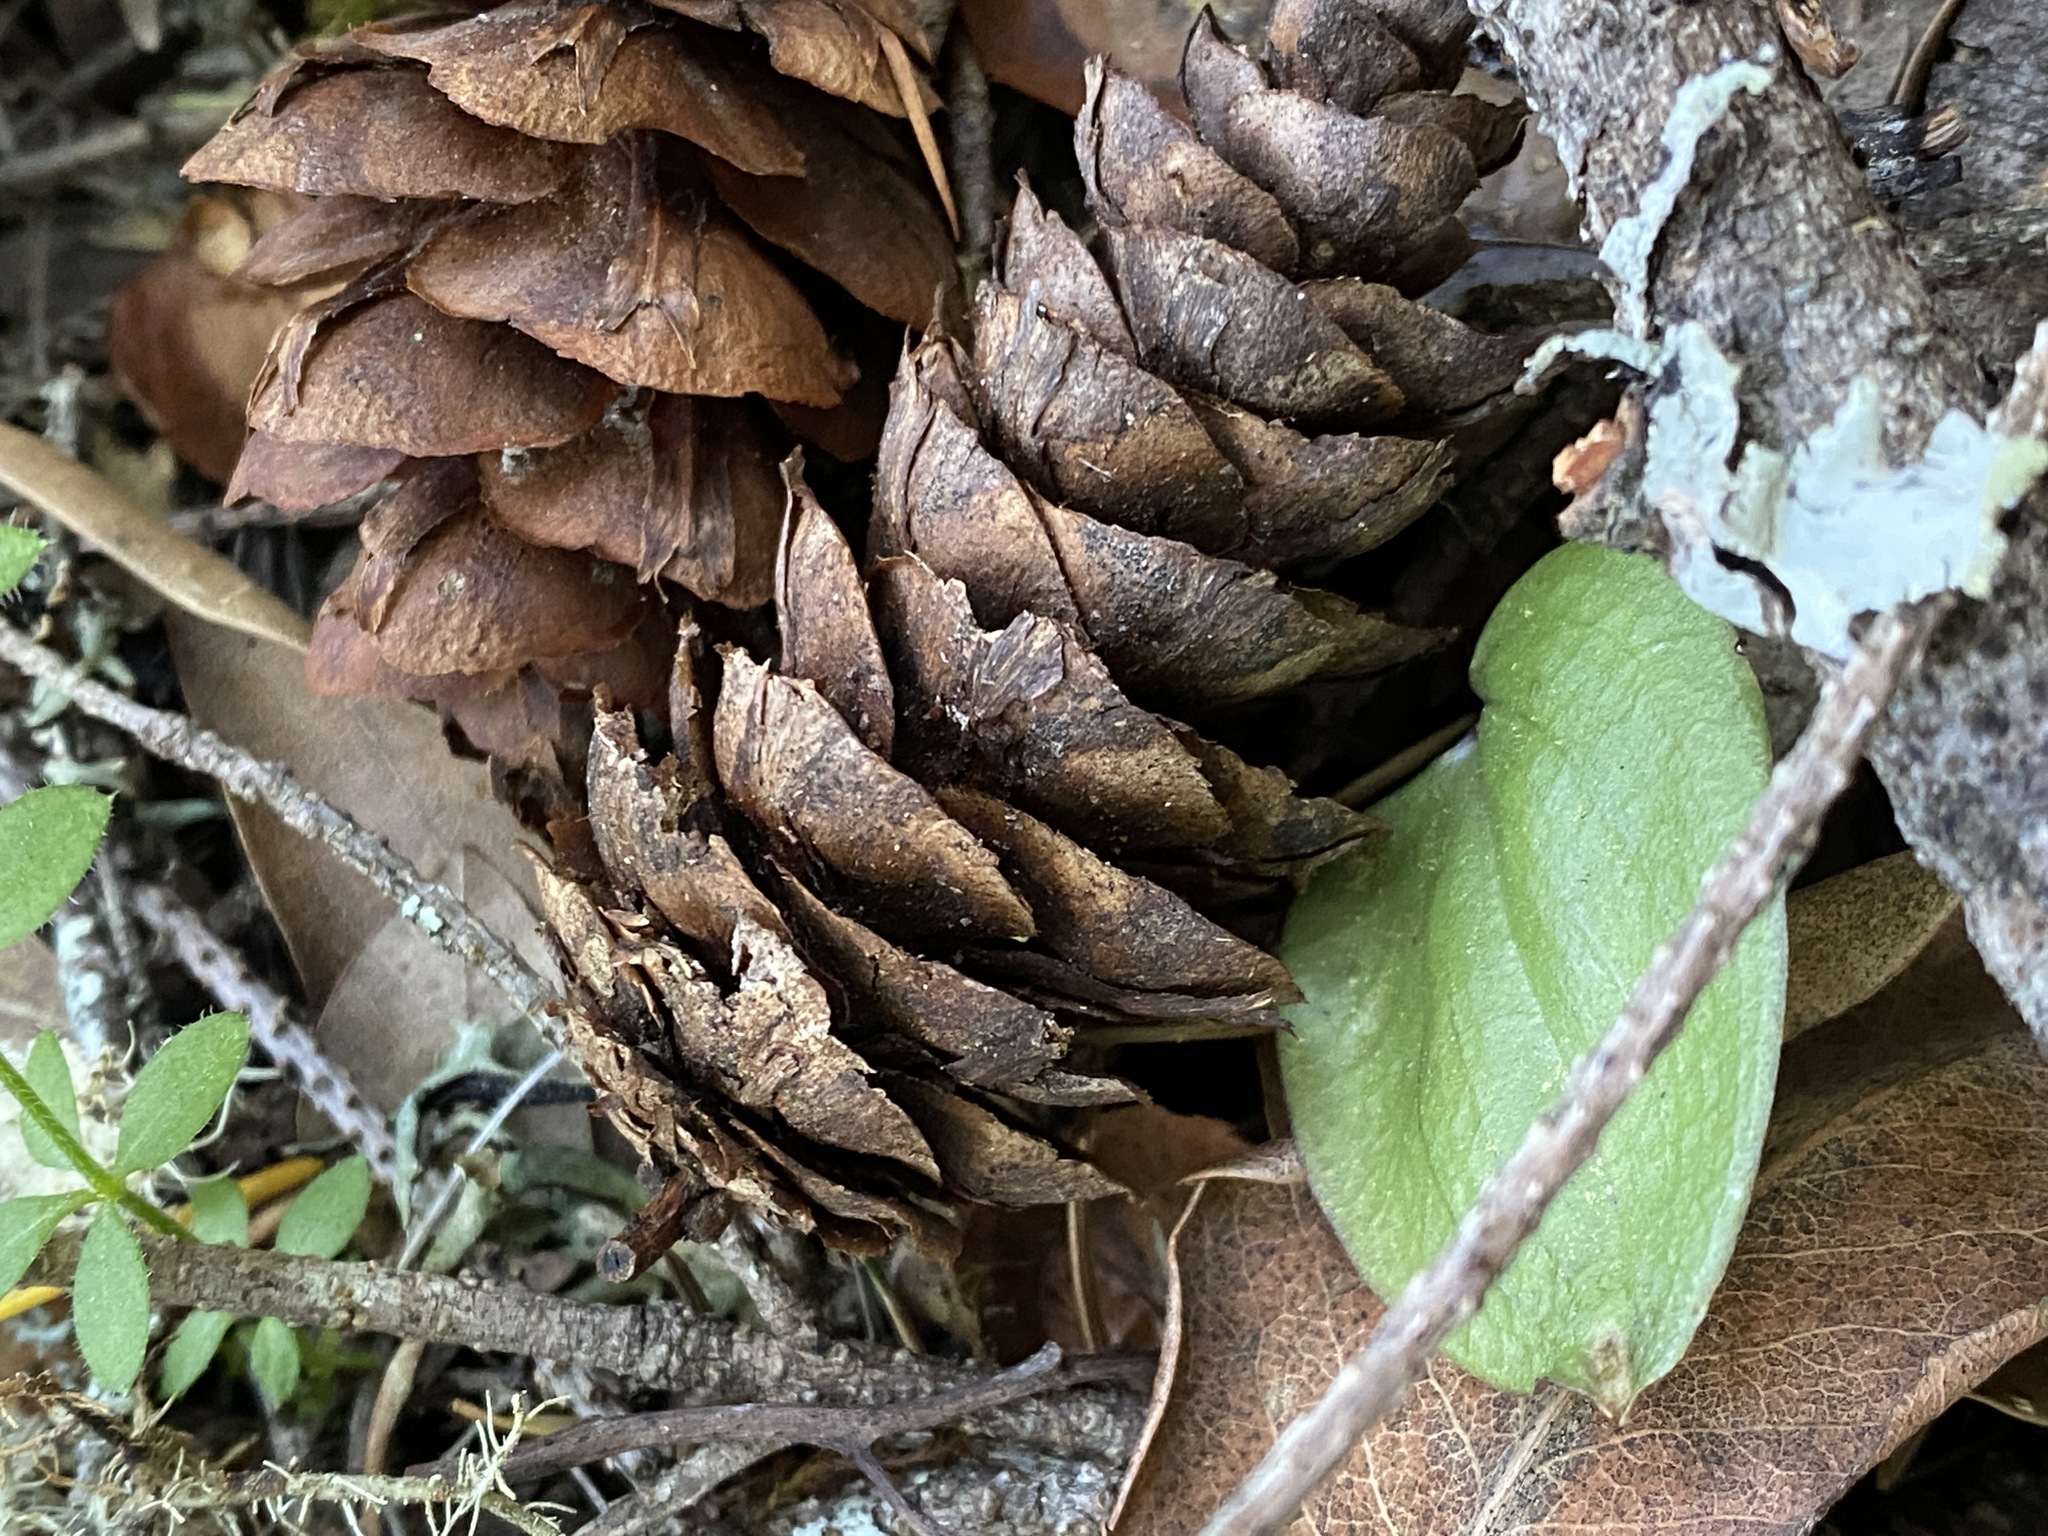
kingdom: Plantae
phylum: Tracheophyta
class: Liliopsida
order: Asparagales
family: Orchidaceae
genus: Calypso
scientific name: Calypso bulbosa
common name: Calypso
